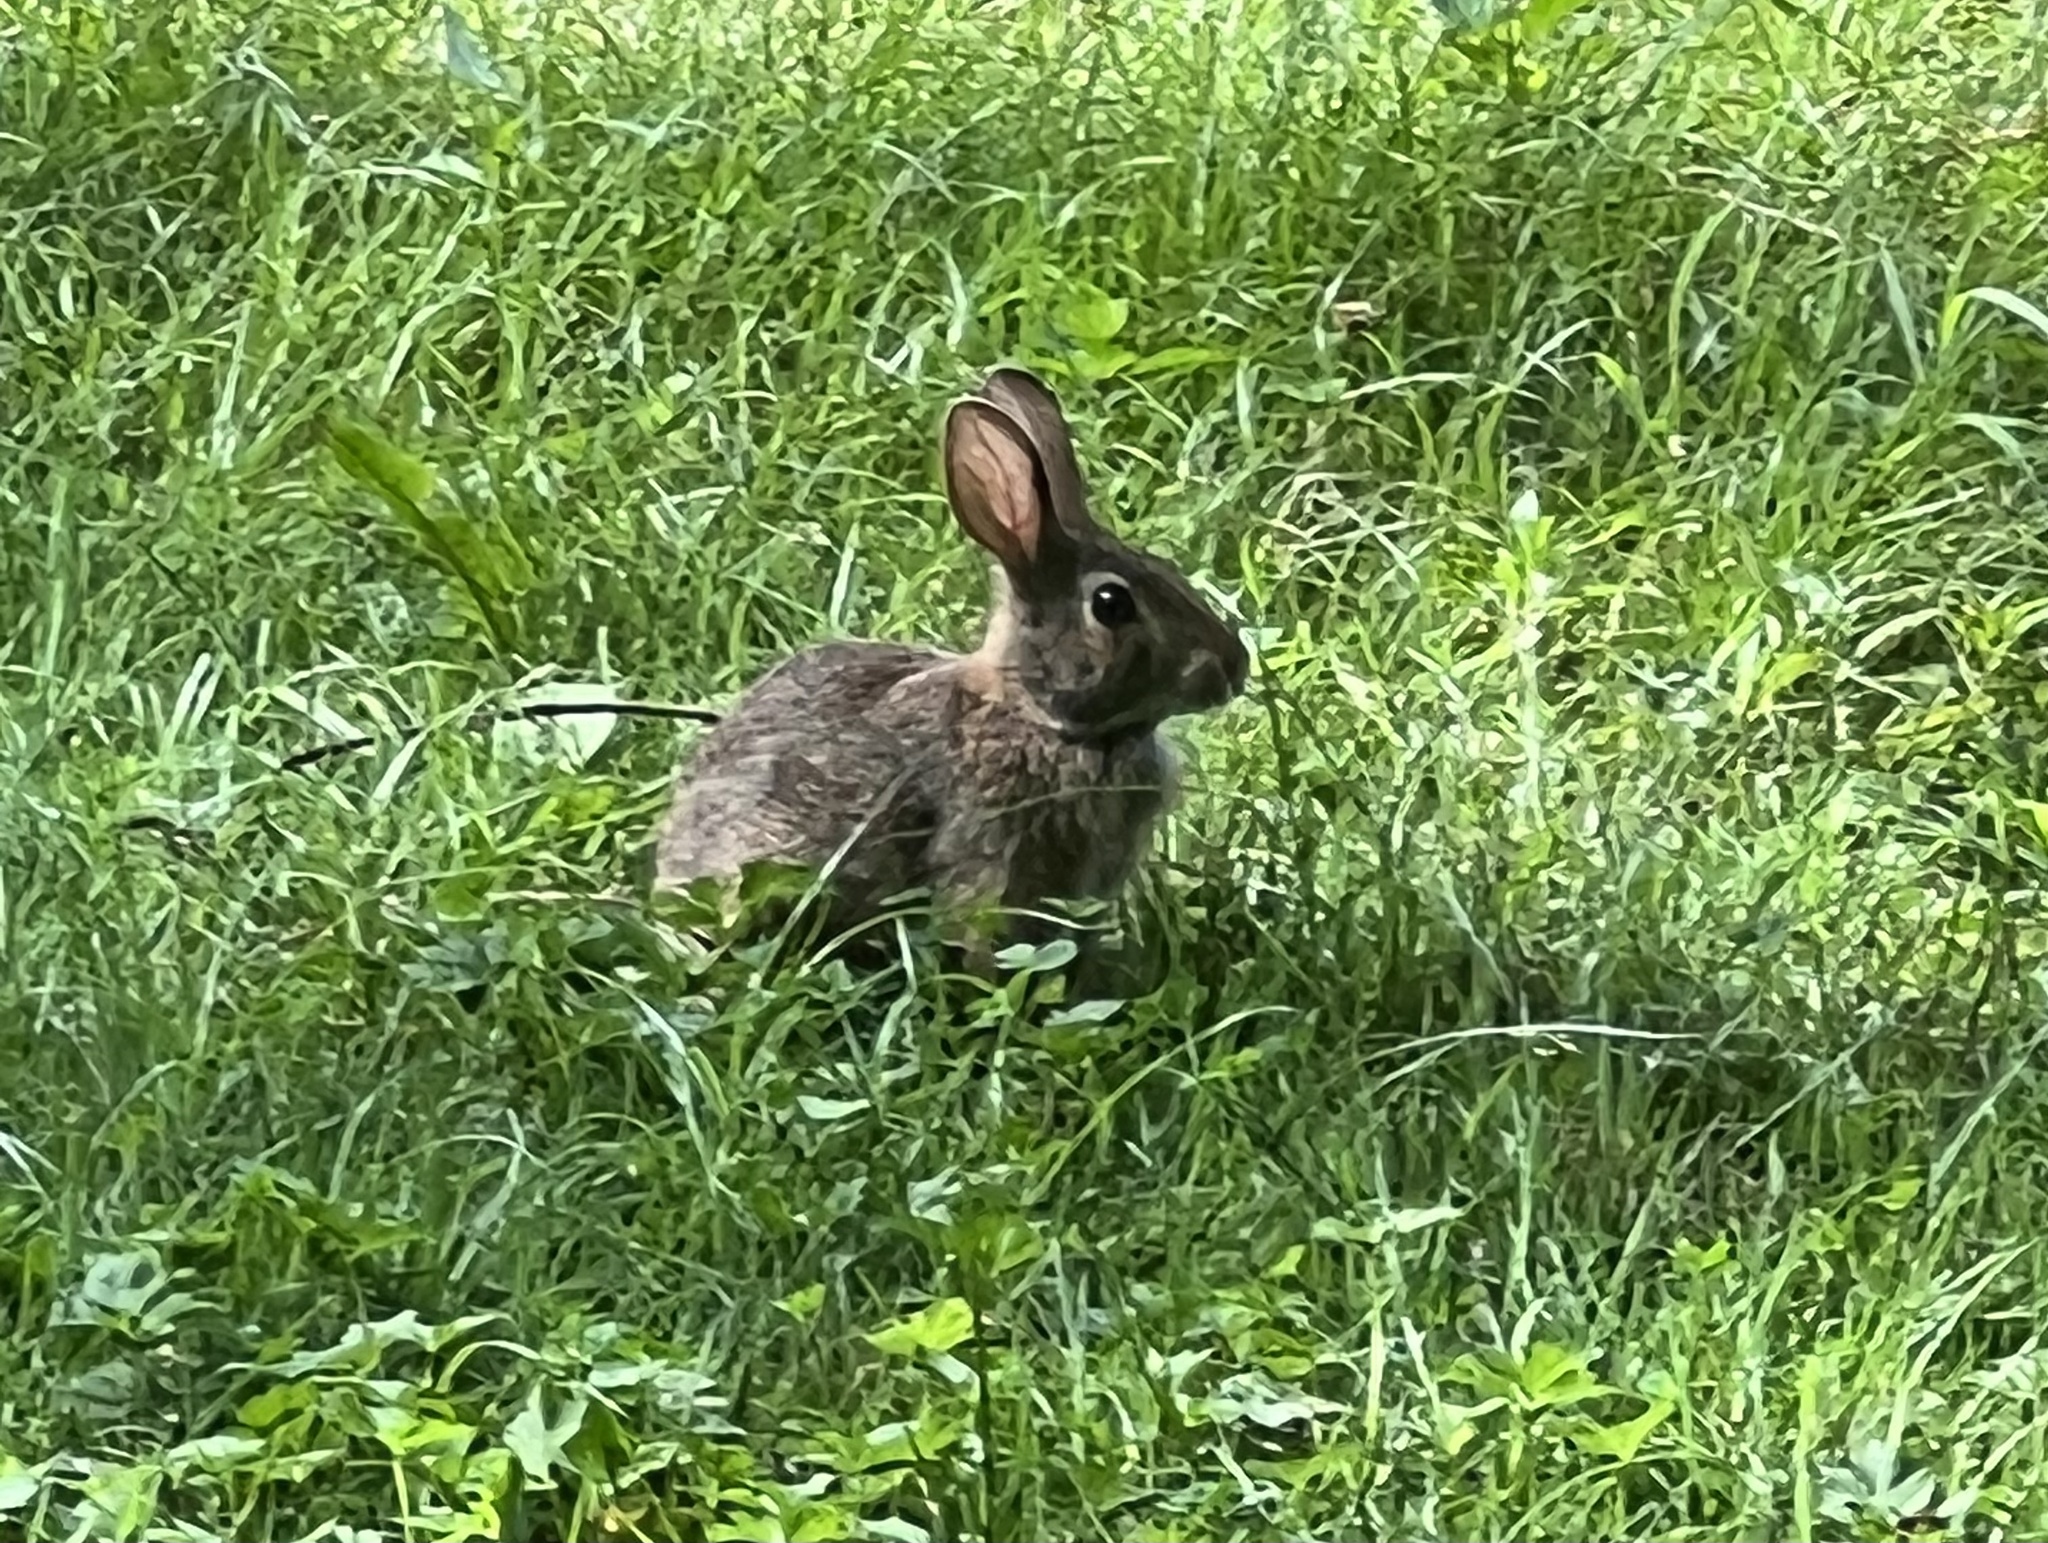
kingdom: Animalia
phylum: Chordata
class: Mammalia
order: Lagomorpha
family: Leporidae
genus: Sylvilagus
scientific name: Sylvilagus floridanus
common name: Eastern cottontail
